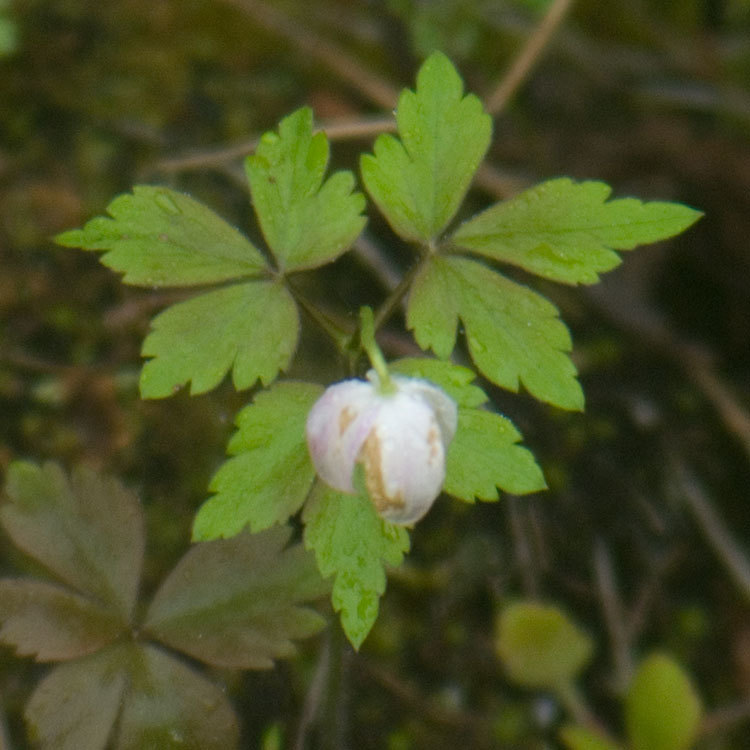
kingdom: Plantae
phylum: Tracheophyta
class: Magnoliopsida
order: Ranunculales
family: Ranunculaceae
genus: Anemone
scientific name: Anemone quinquefolia
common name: Wood anemone
